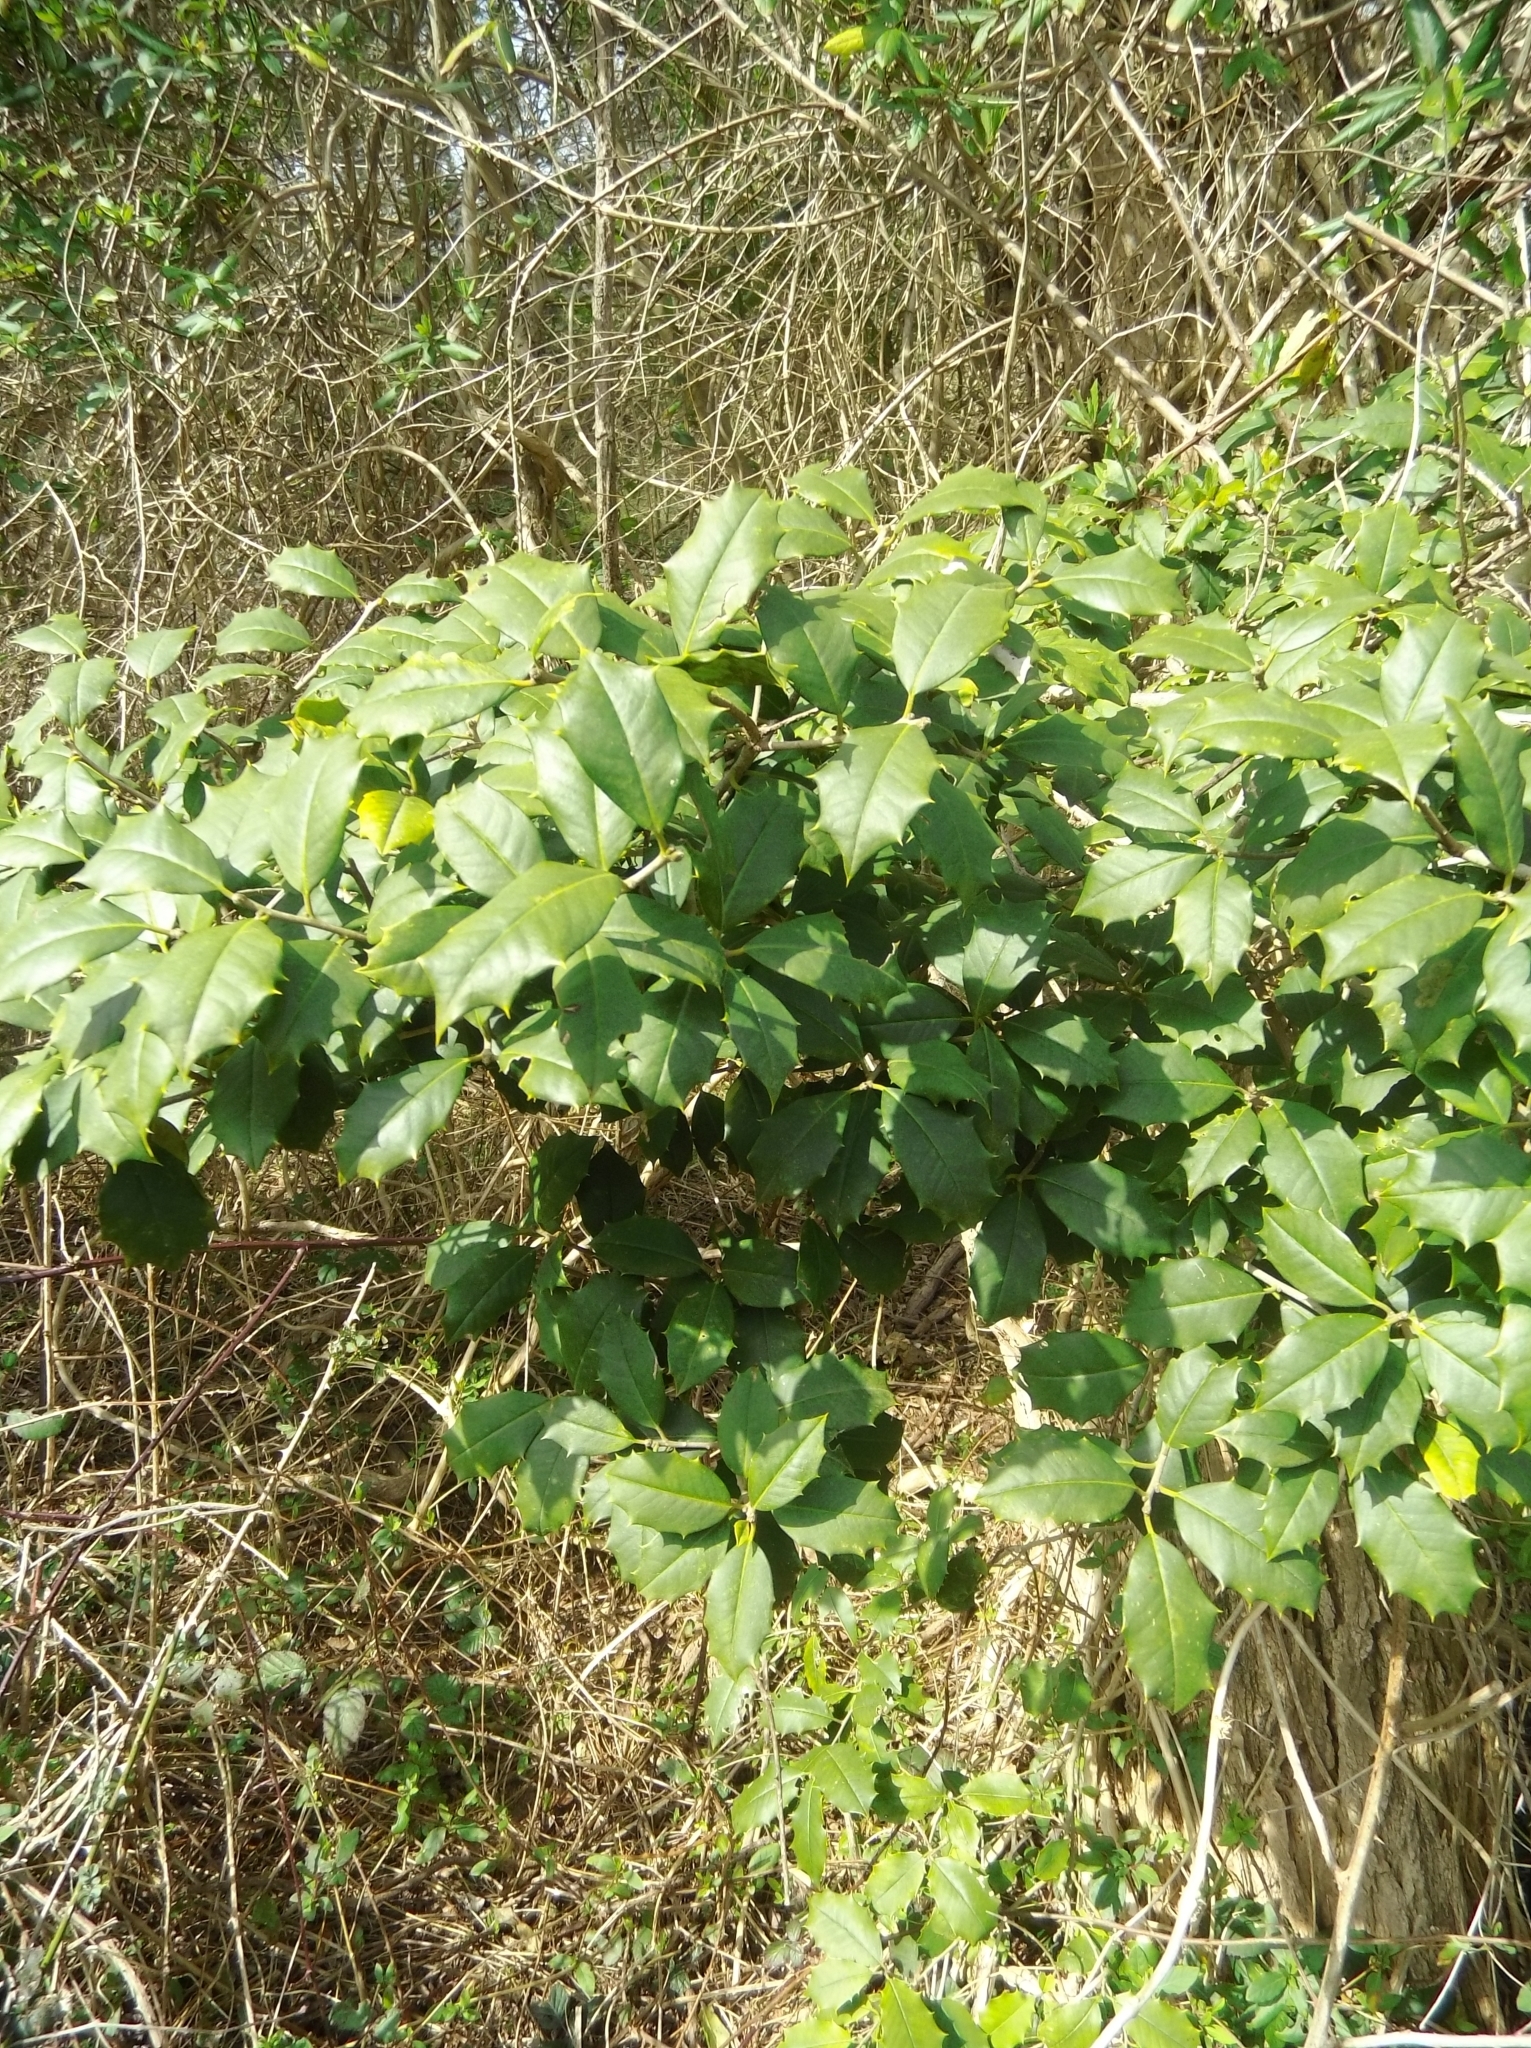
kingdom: Plantae
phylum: Tracheophyta
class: Magnoliopsida
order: Aquifoliales
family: Aquifoliaceae
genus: Ilex
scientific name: Ilex opaca
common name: American holly
